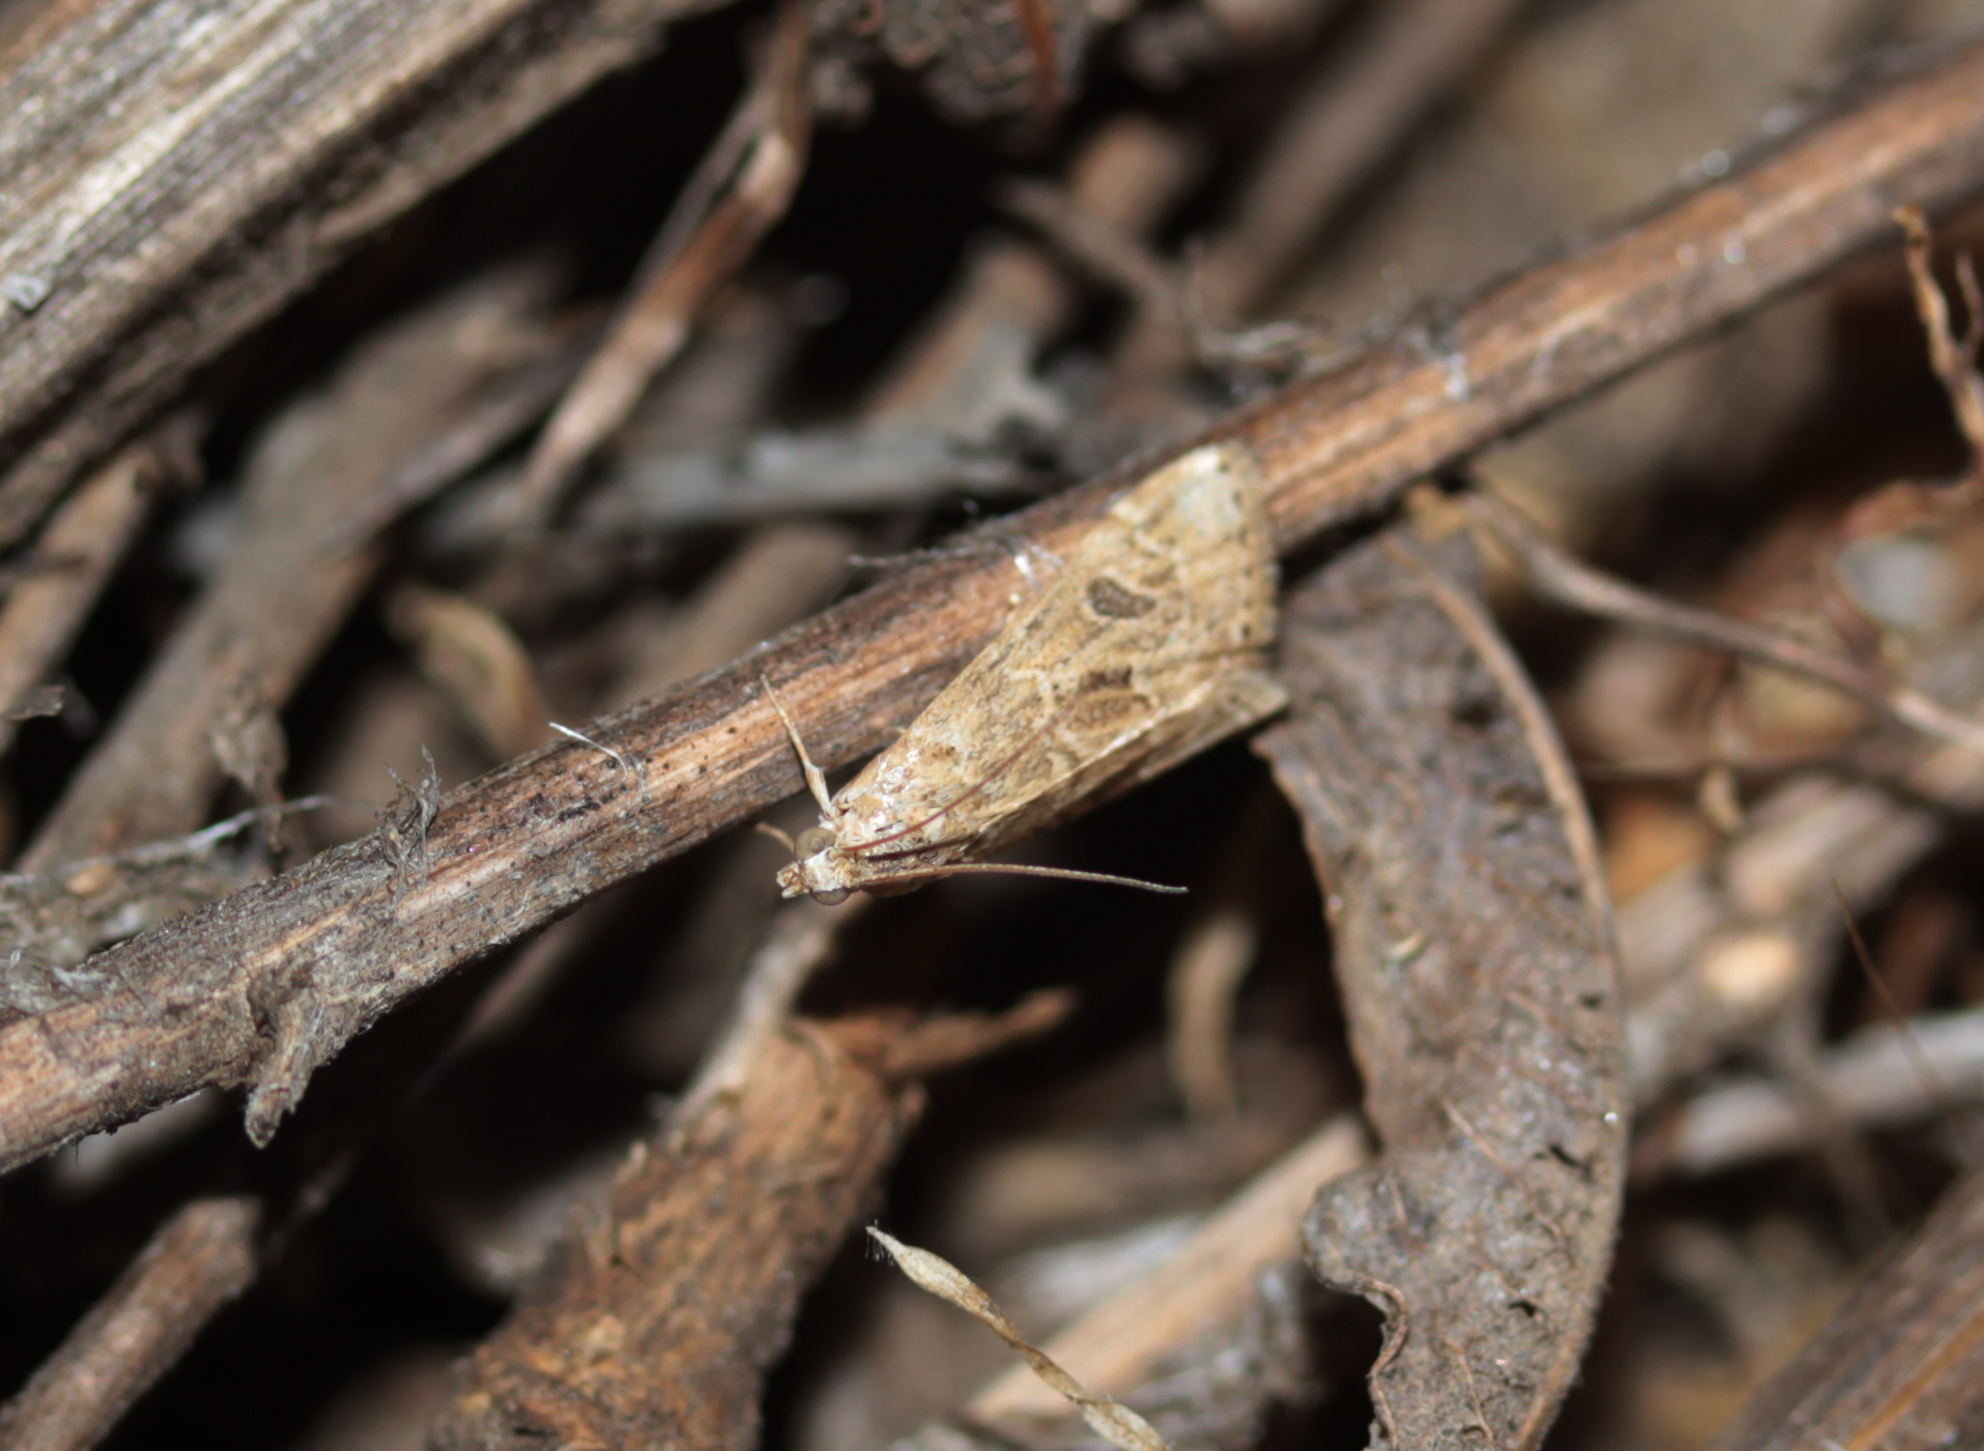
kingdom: Animalia
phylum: Arthropoda
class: Insecta
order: Lepidoptera
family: Crambidae
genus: Hellula
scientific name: Hellula rogatalis
